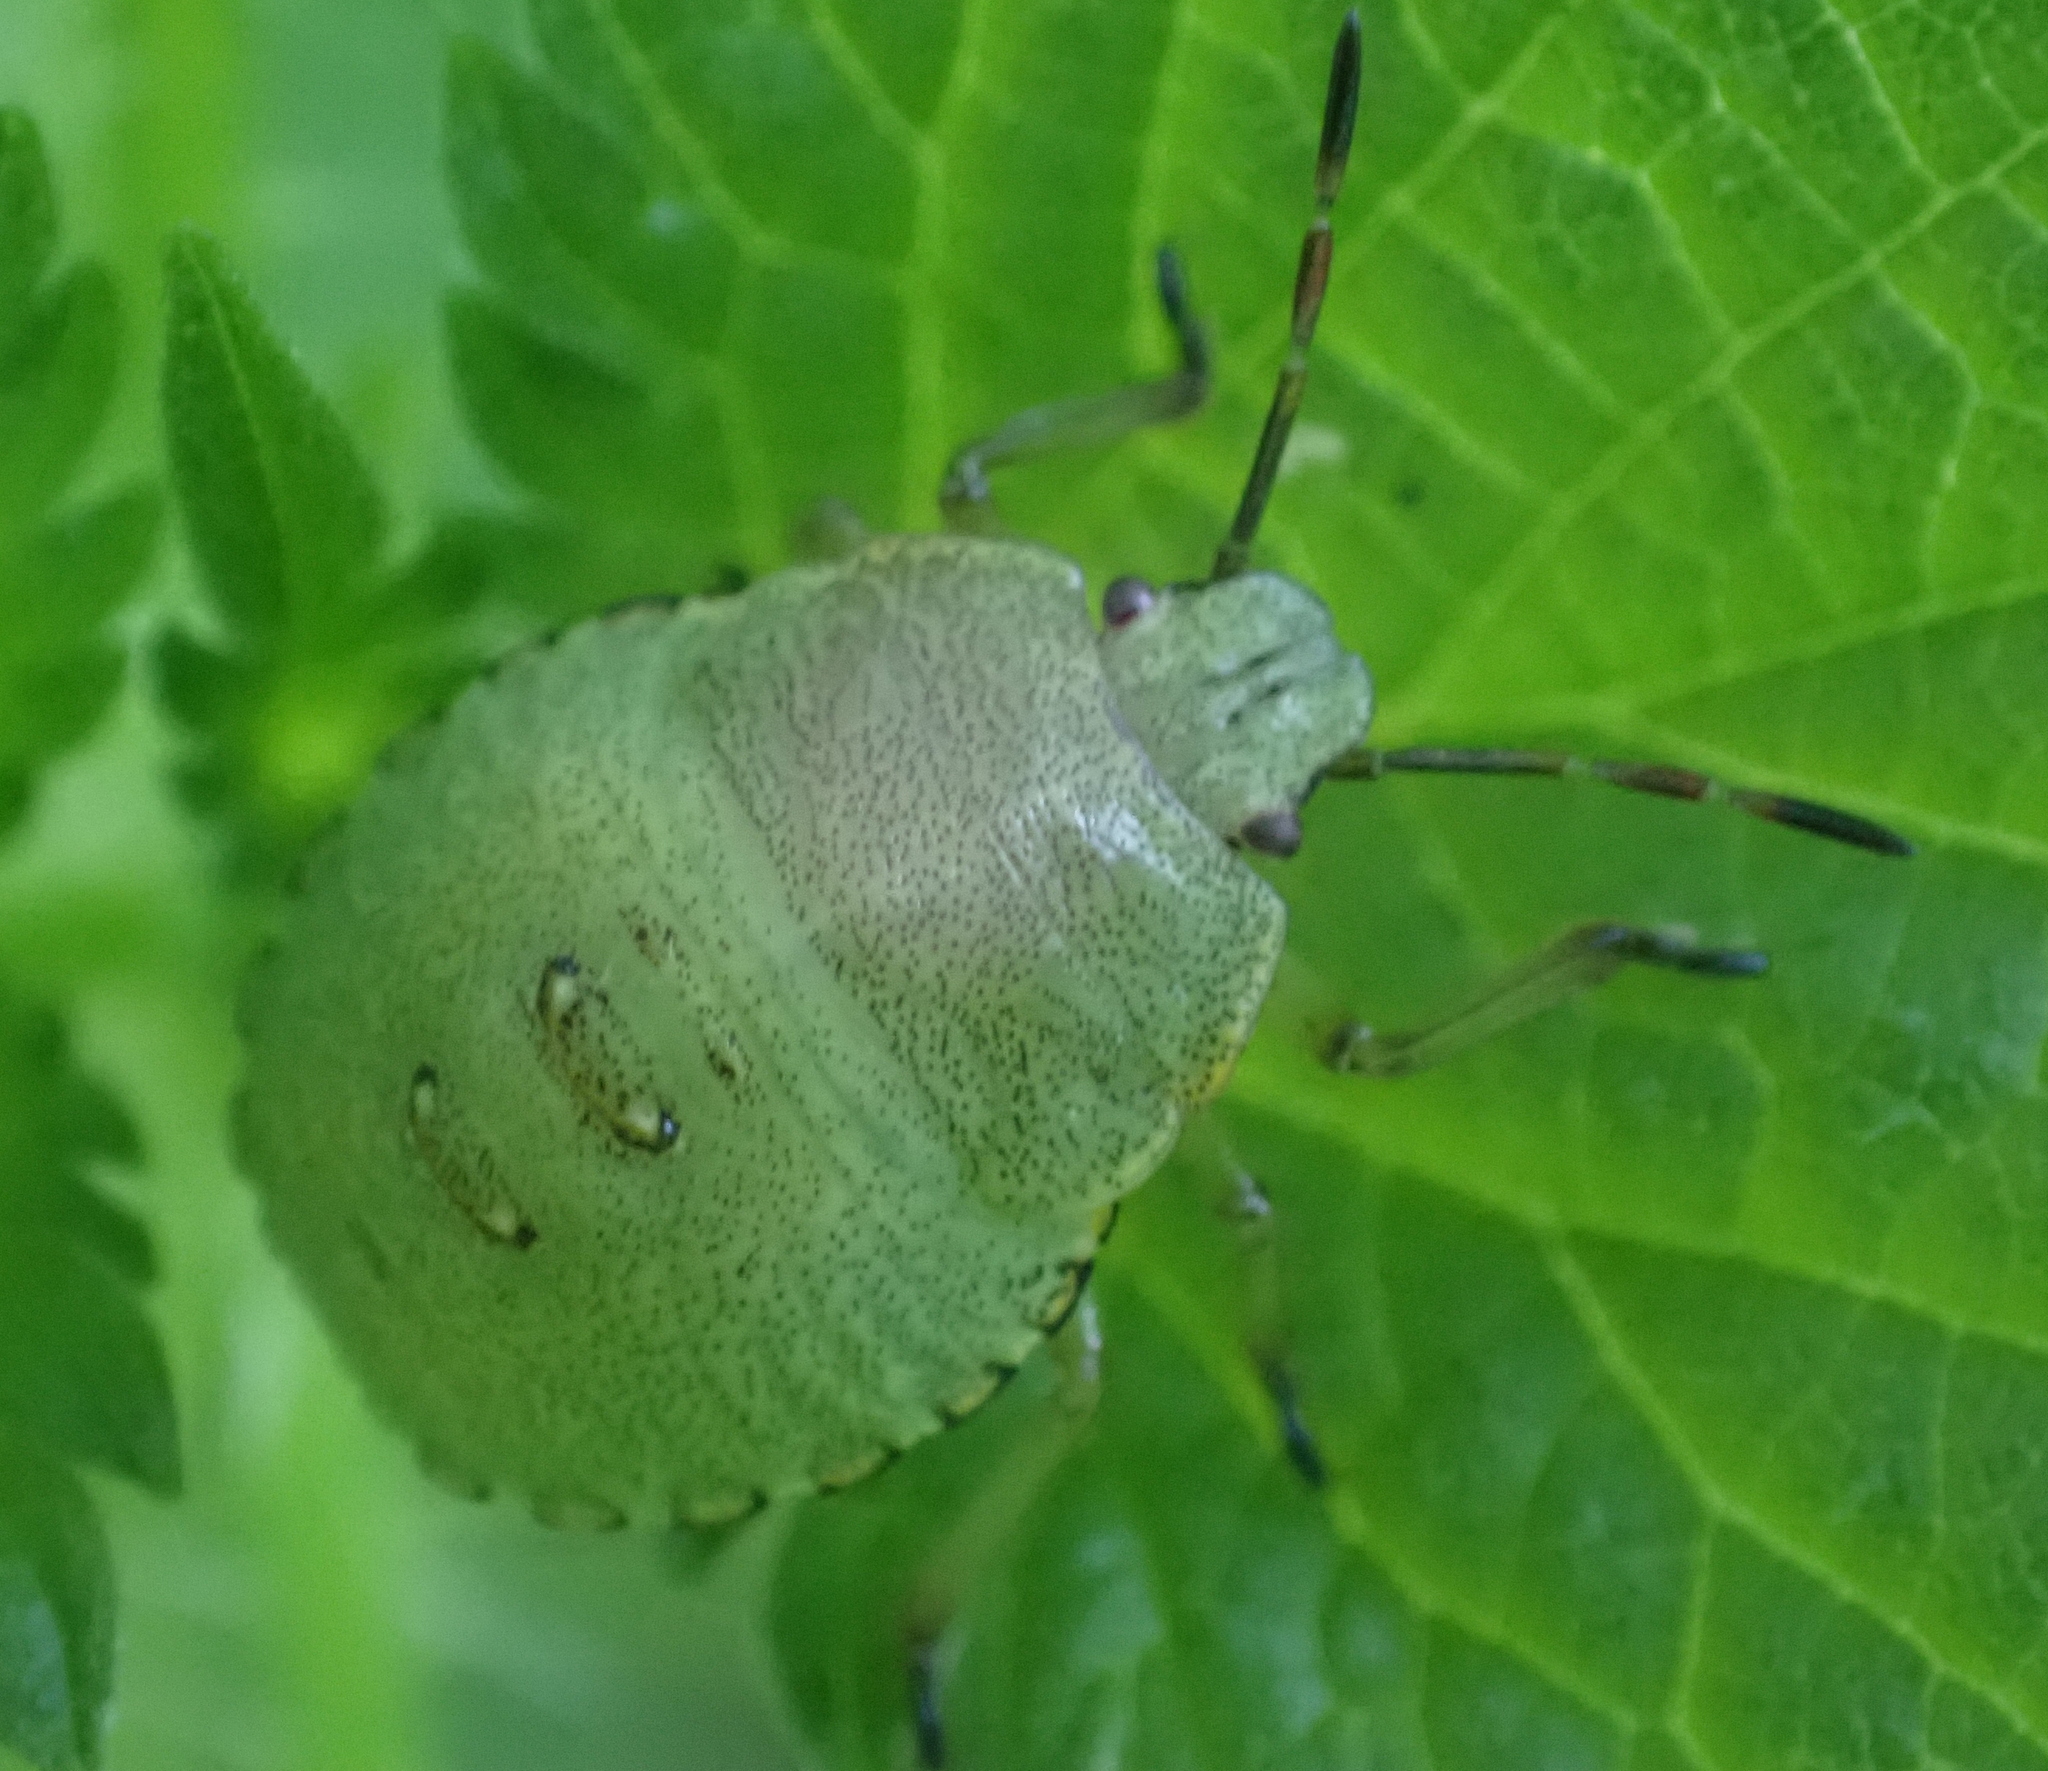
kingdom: Animalia
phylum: Arthropoda
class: Insecta
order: Hemiptera
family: Pentatomidae
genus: Palomena
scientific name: Palomena prasina
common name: Green shieldbug
